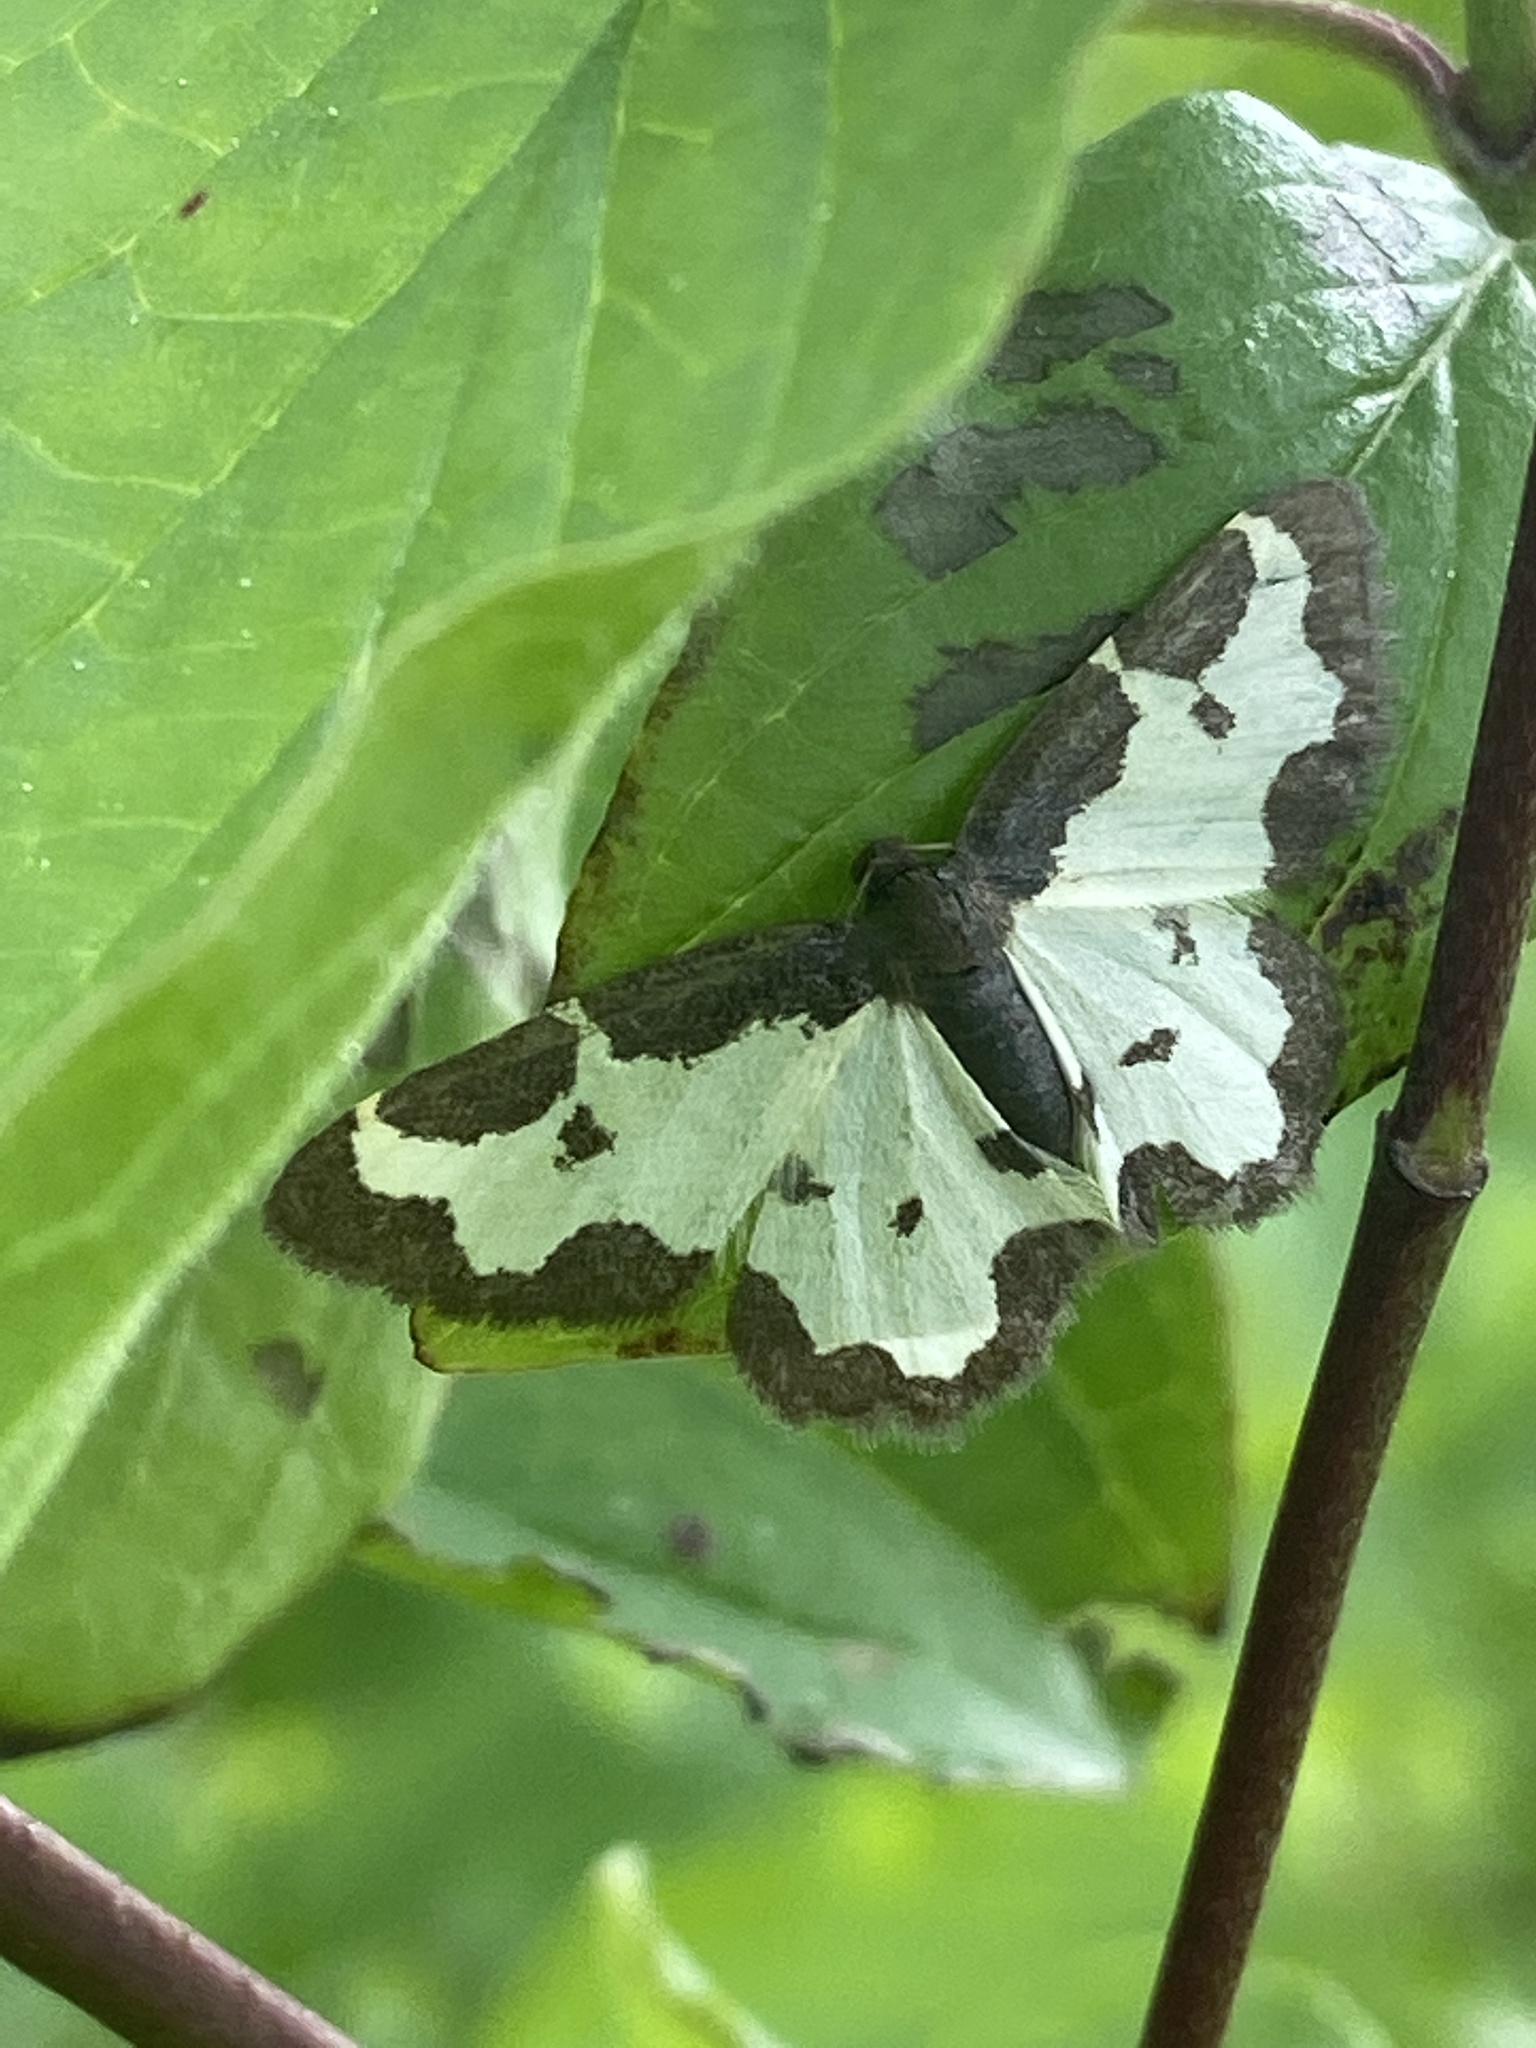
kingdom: Animalia
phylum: Arthropoda
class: Insecta
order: Lepidoptera
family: Geometridae
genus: Lomaspilis
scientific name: Lomaspilis marginata
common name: Clouded border
